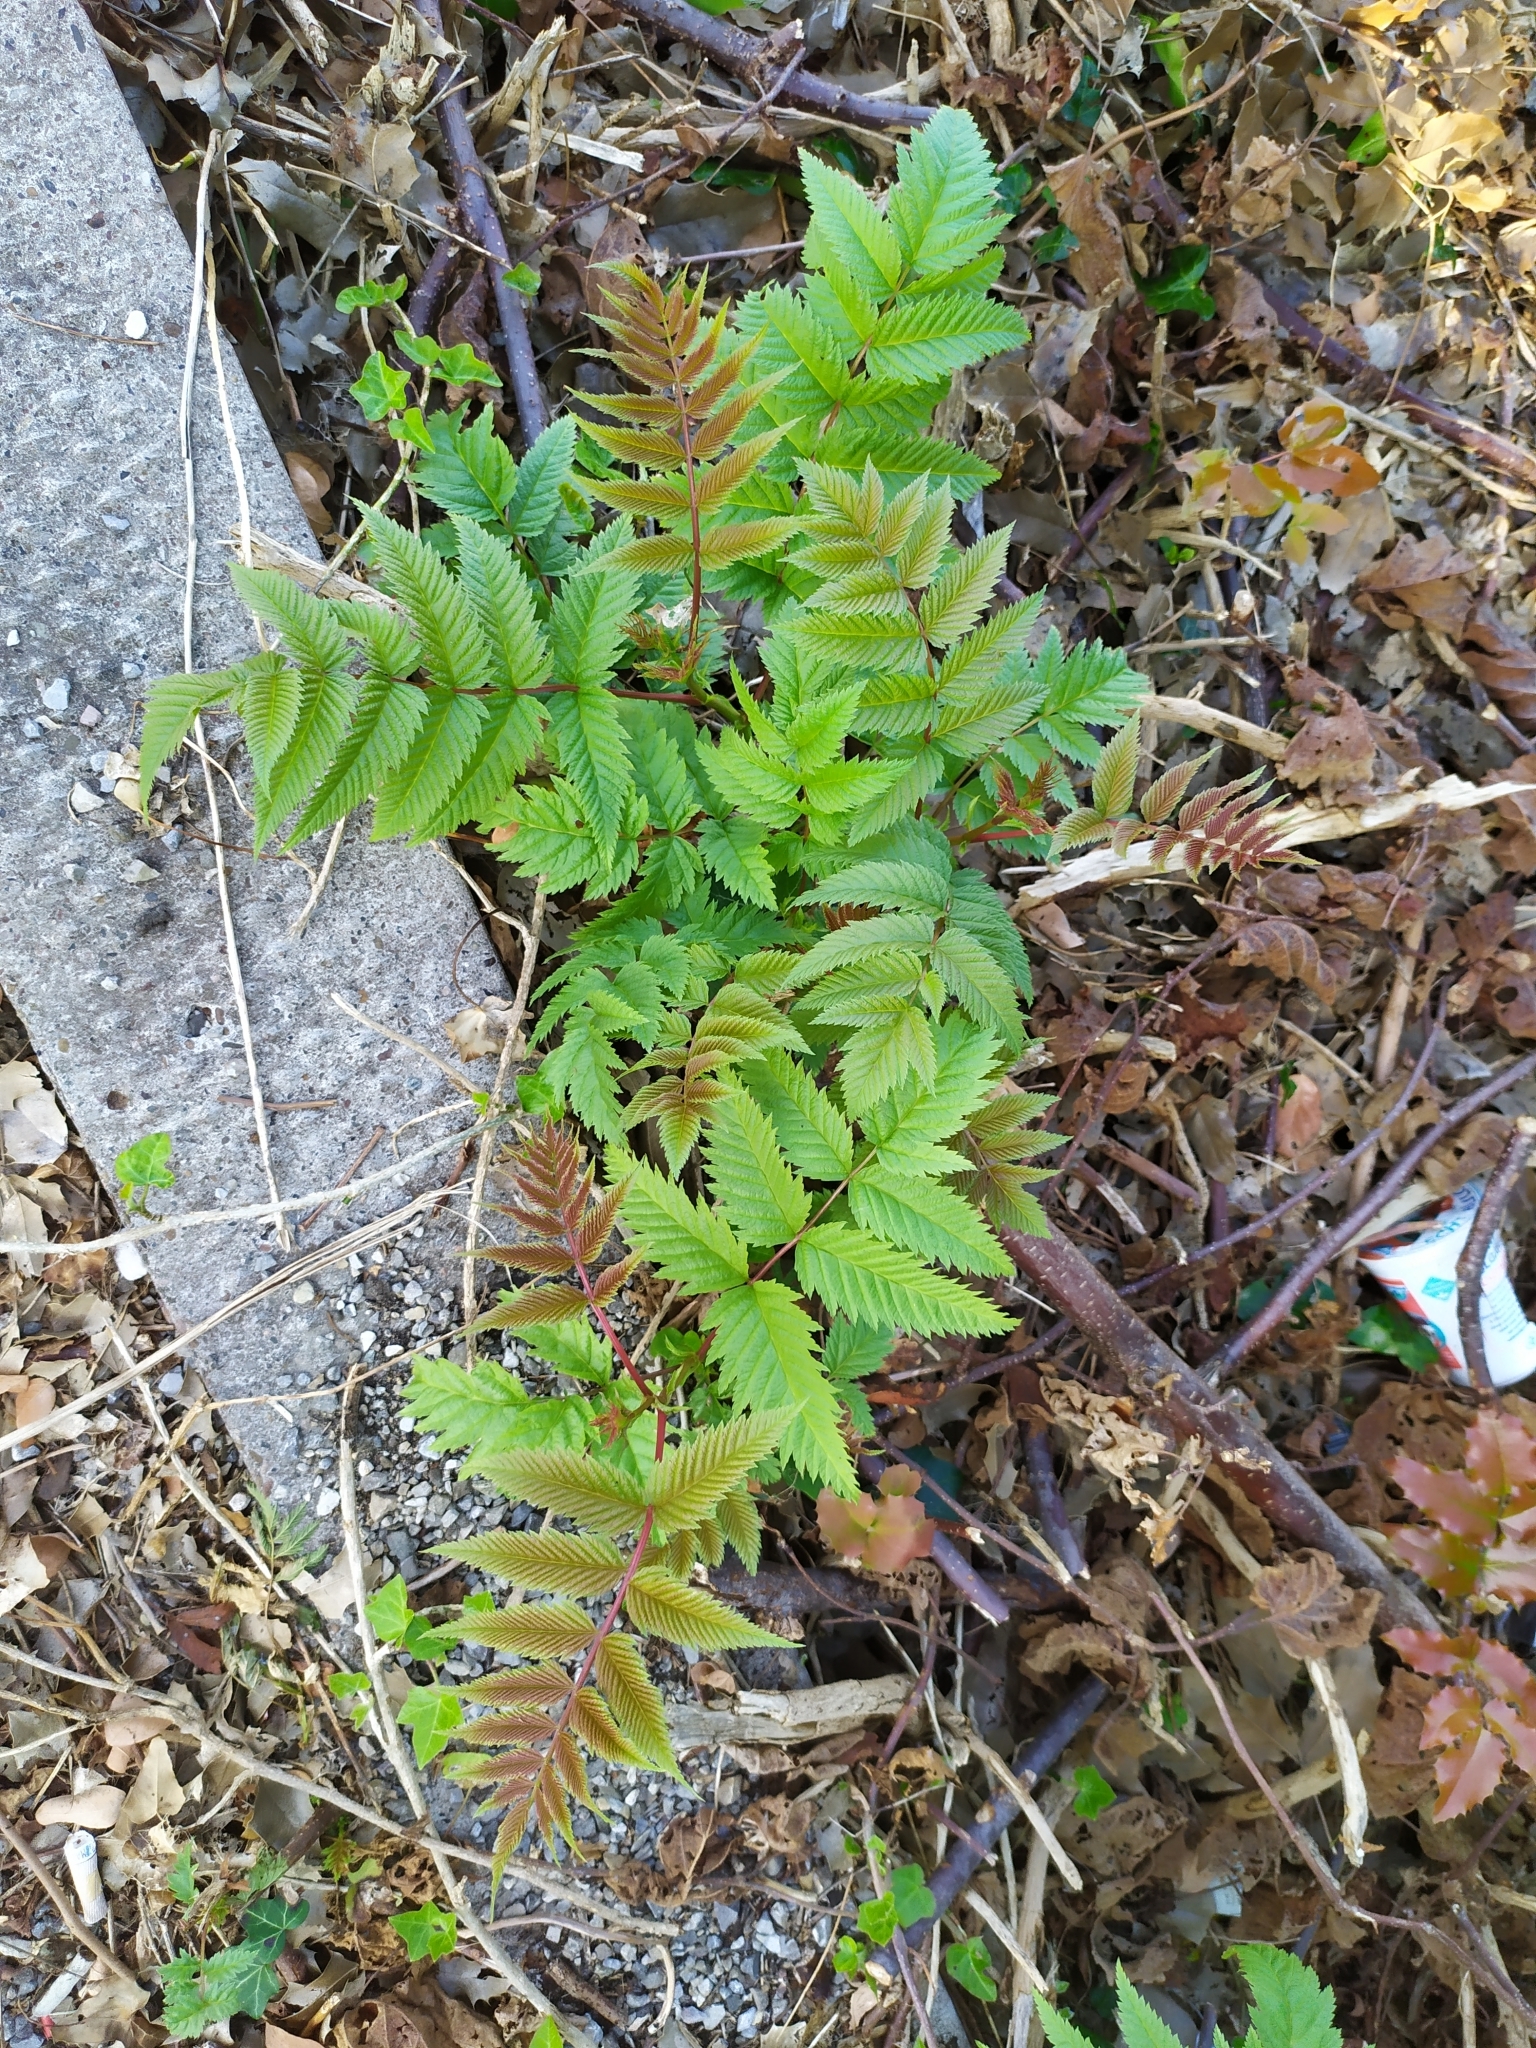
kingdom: Plantae
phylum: Tracheophyta
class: Magnoliopsida
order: Rosales
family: Rosaceae
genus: Sorbaria
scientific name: Sorbaria sorbifolia
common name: False spiraea
